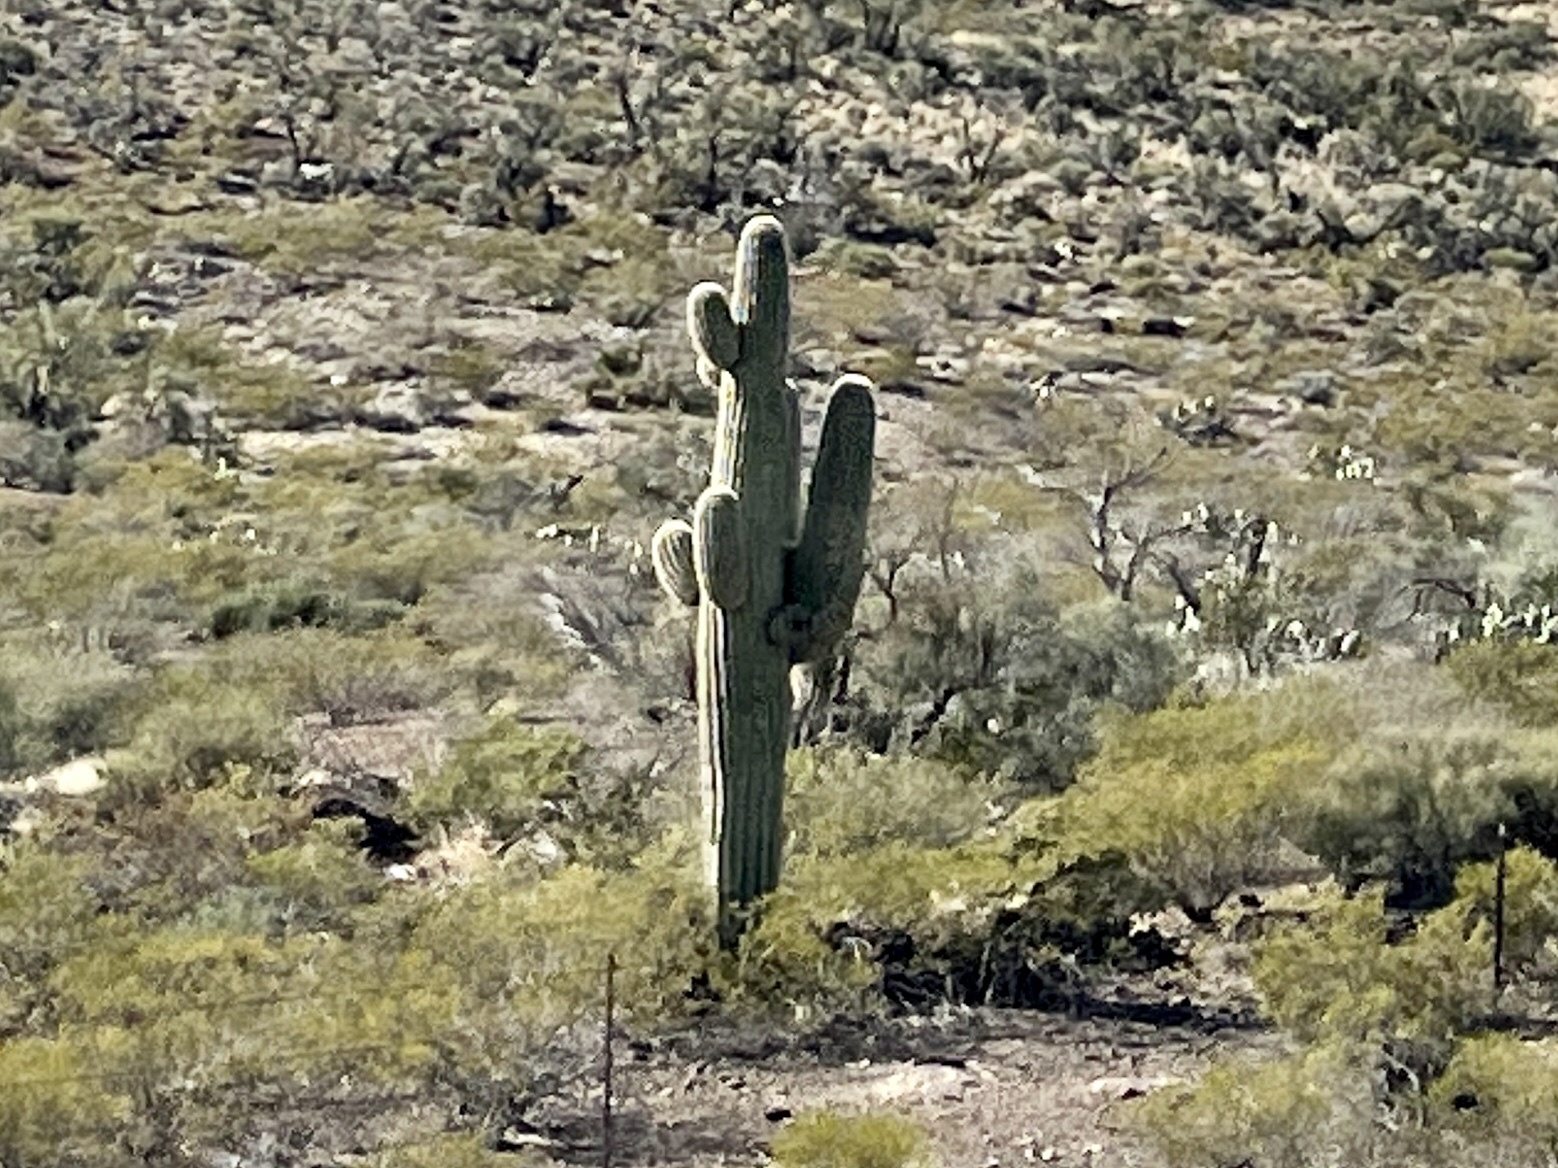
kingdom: Plantae
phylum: Tracheophyta
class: Magnoliopsida
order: Caryophyllales
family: Cactaceae
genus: Carnegiea
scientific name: Carnegiea gigantea
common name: Saguaro
